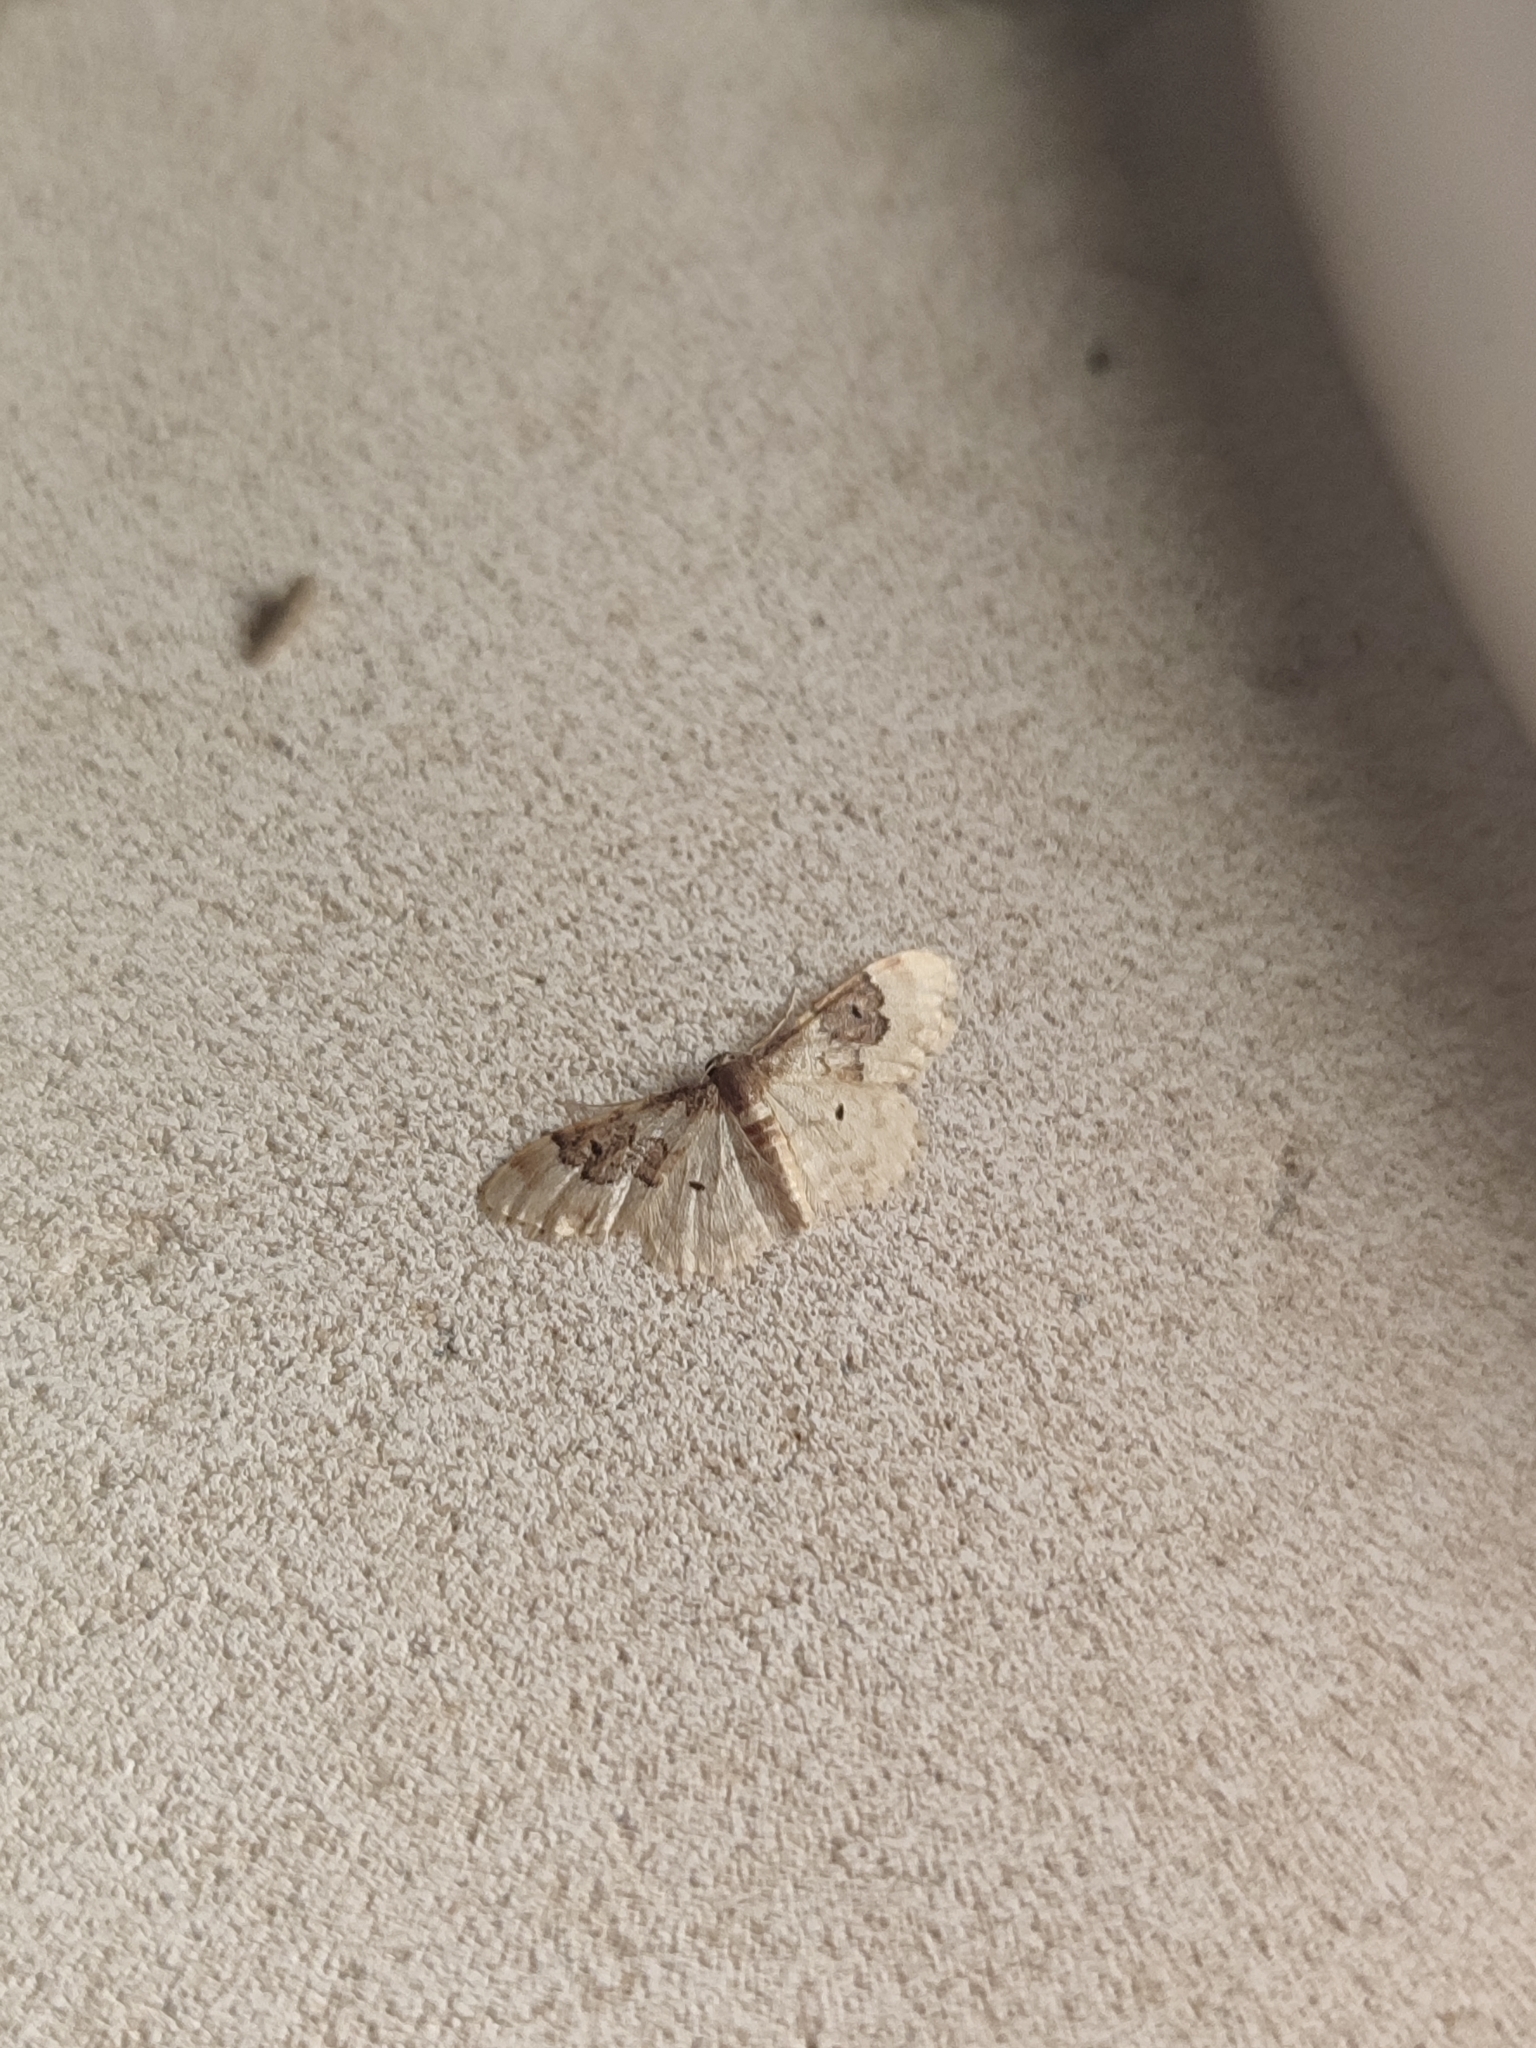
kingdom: Animalia
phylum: Arthropoda
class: Insecta
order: Lepidoptera
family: Geometridae
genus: Idaea
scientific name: Idaea rusticata
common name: Least carpet
